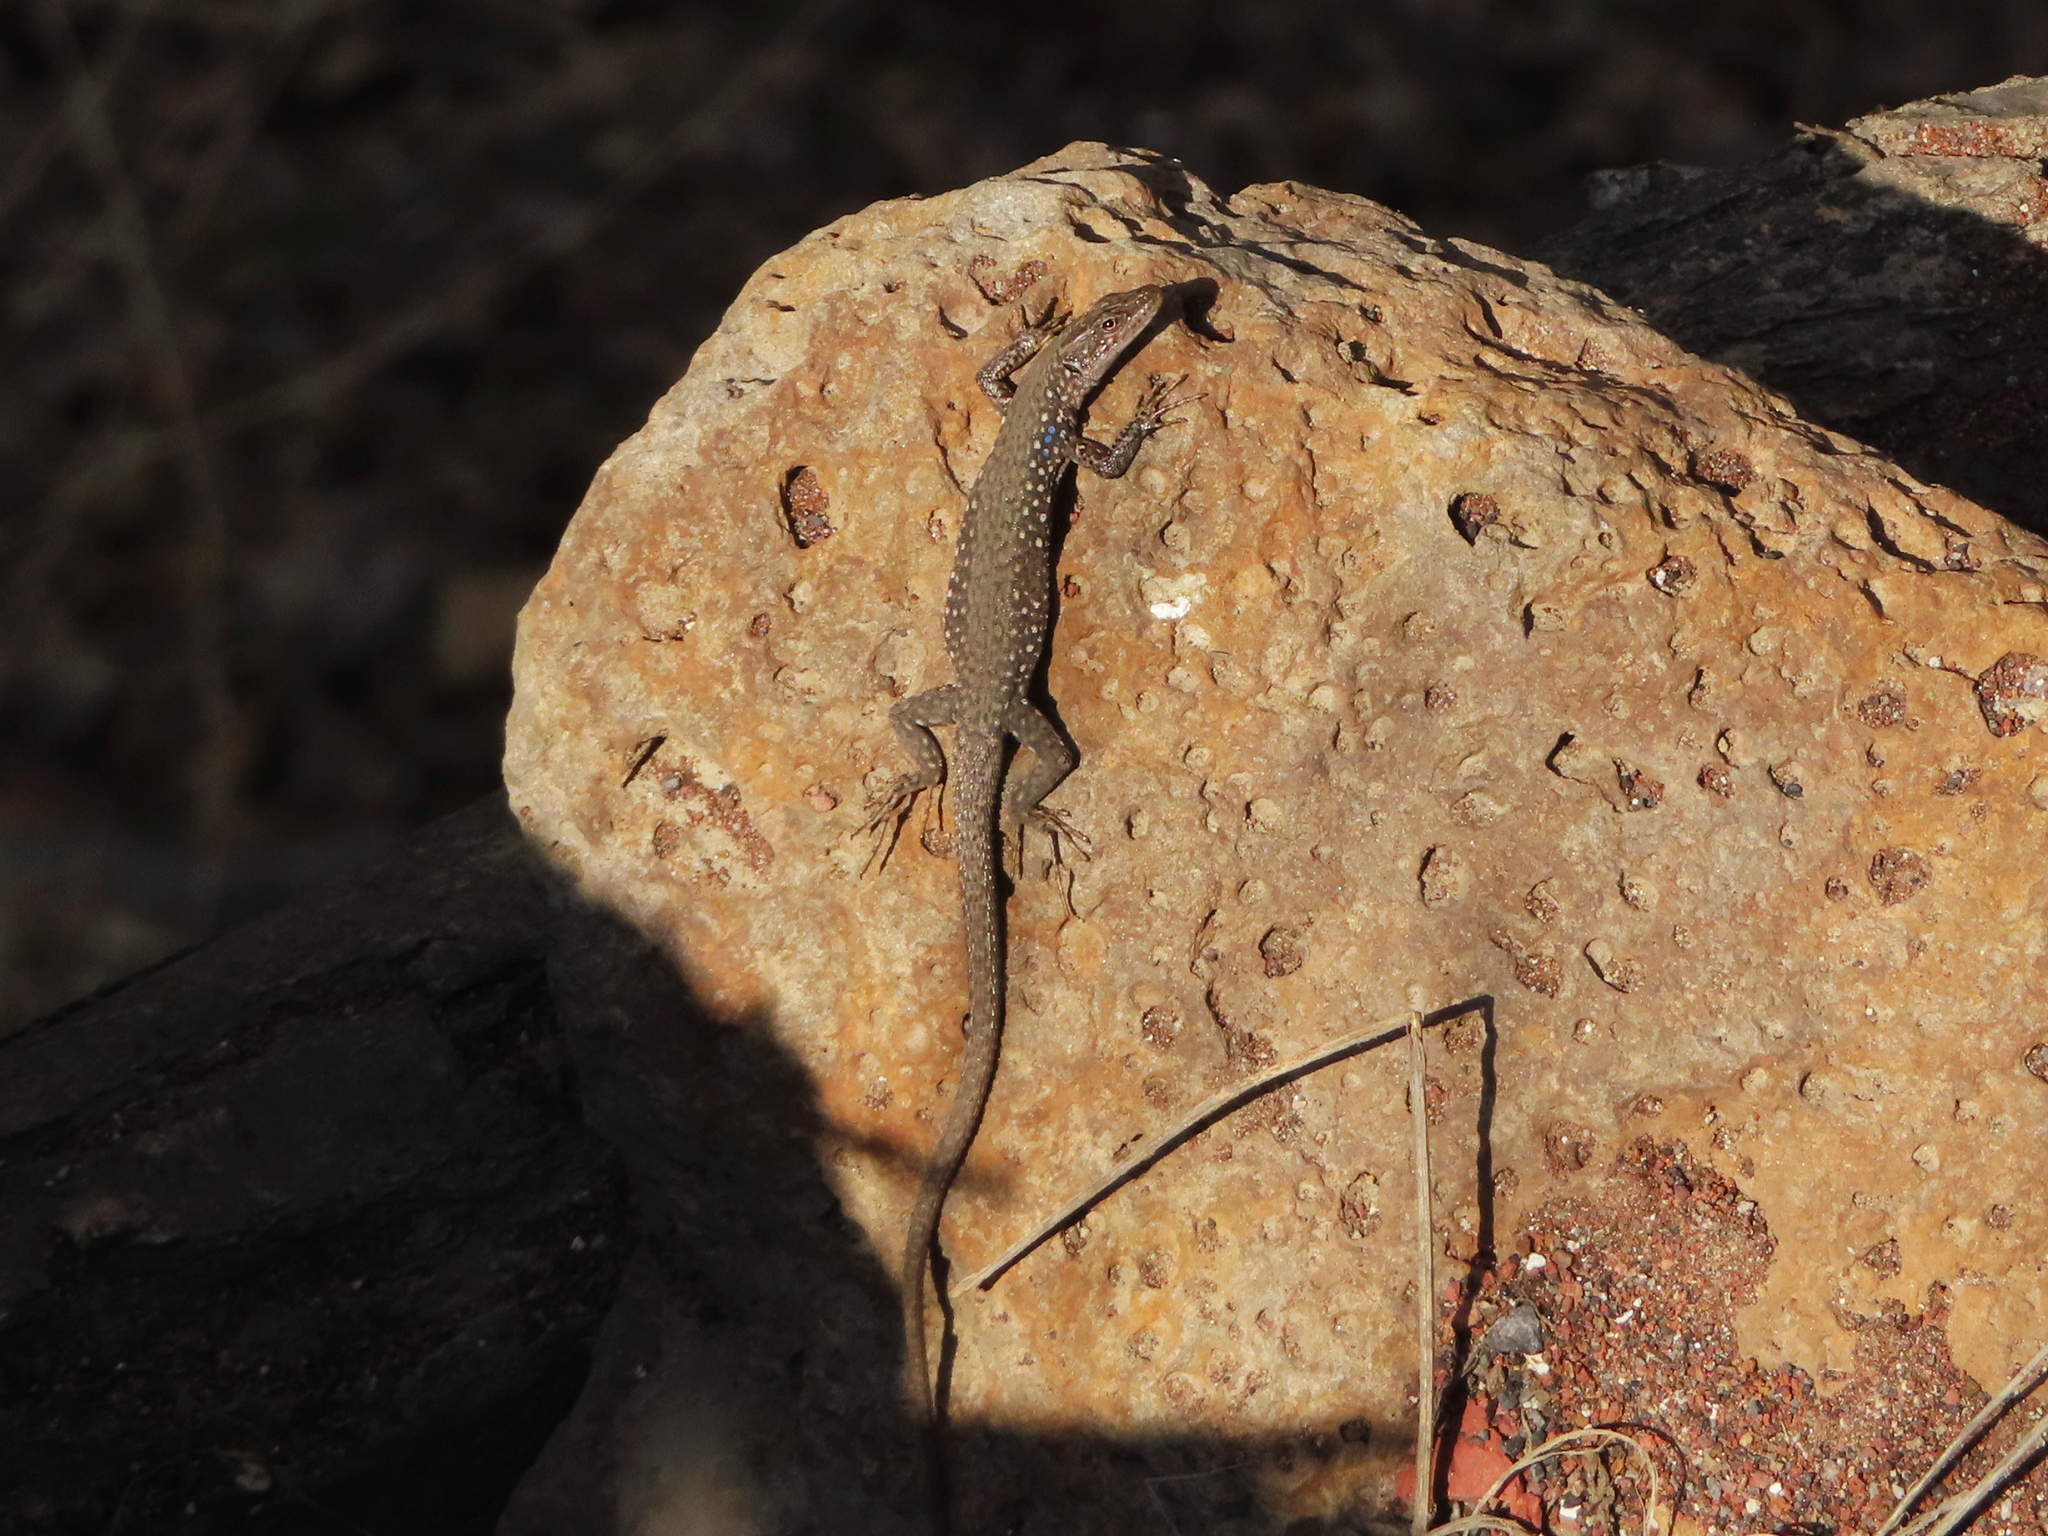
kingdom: Animalia
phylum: Chordata
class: Squamata
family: Lacertidae
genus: Darevskia
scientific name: Darevskia
